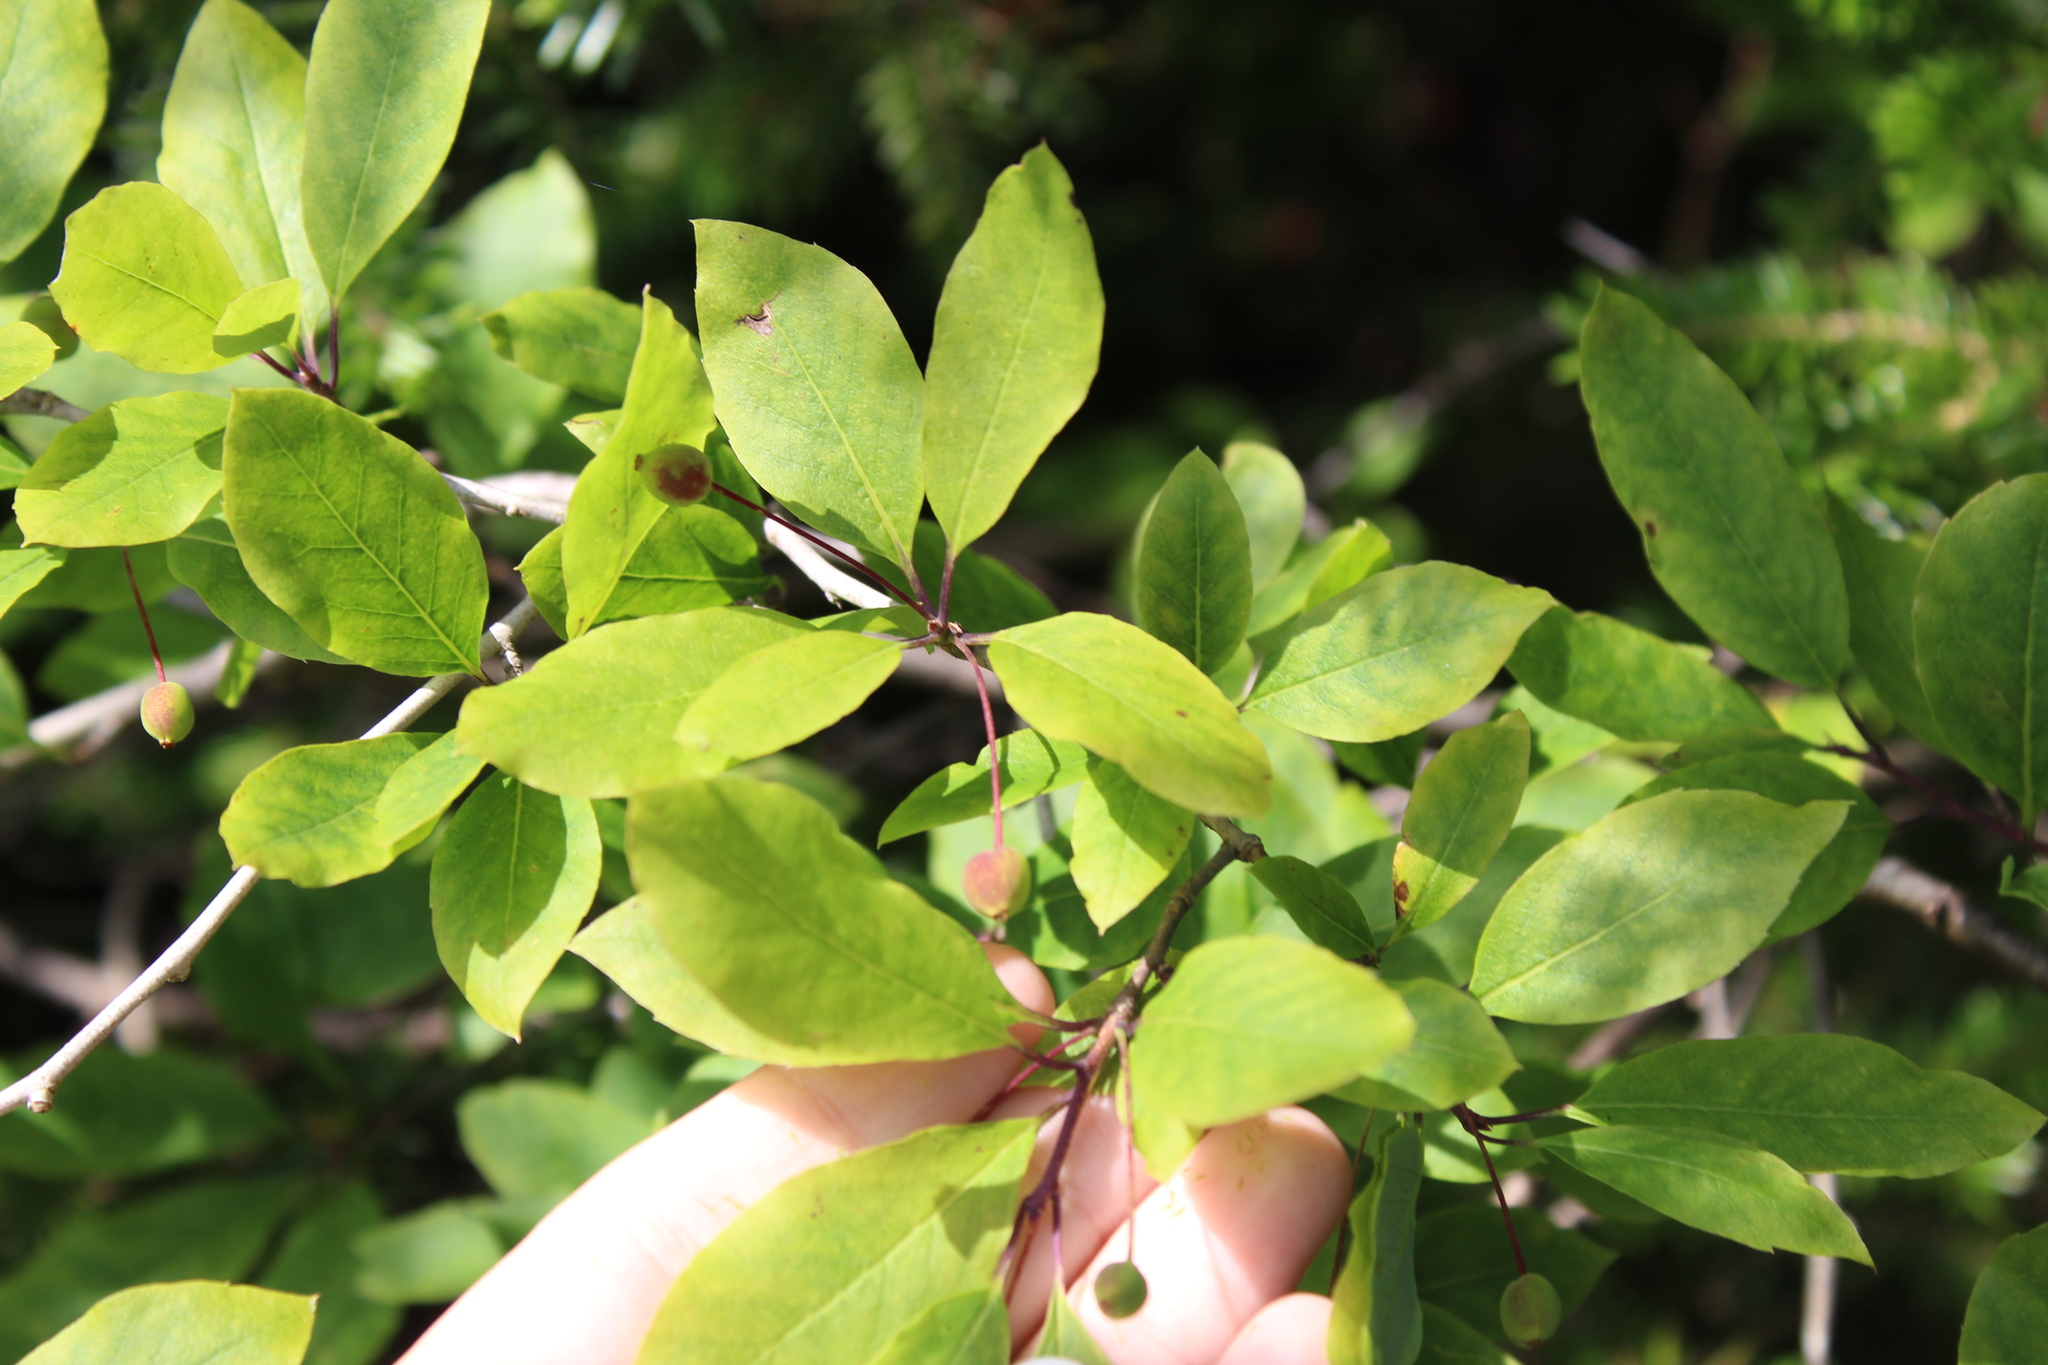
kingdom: Plantae
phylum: Tracheophyta
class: Magnoliopsida
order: Aquifoliales
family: Aquifoliaceae
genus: Ilex
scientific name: Ilex mucronata
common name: Catberry
